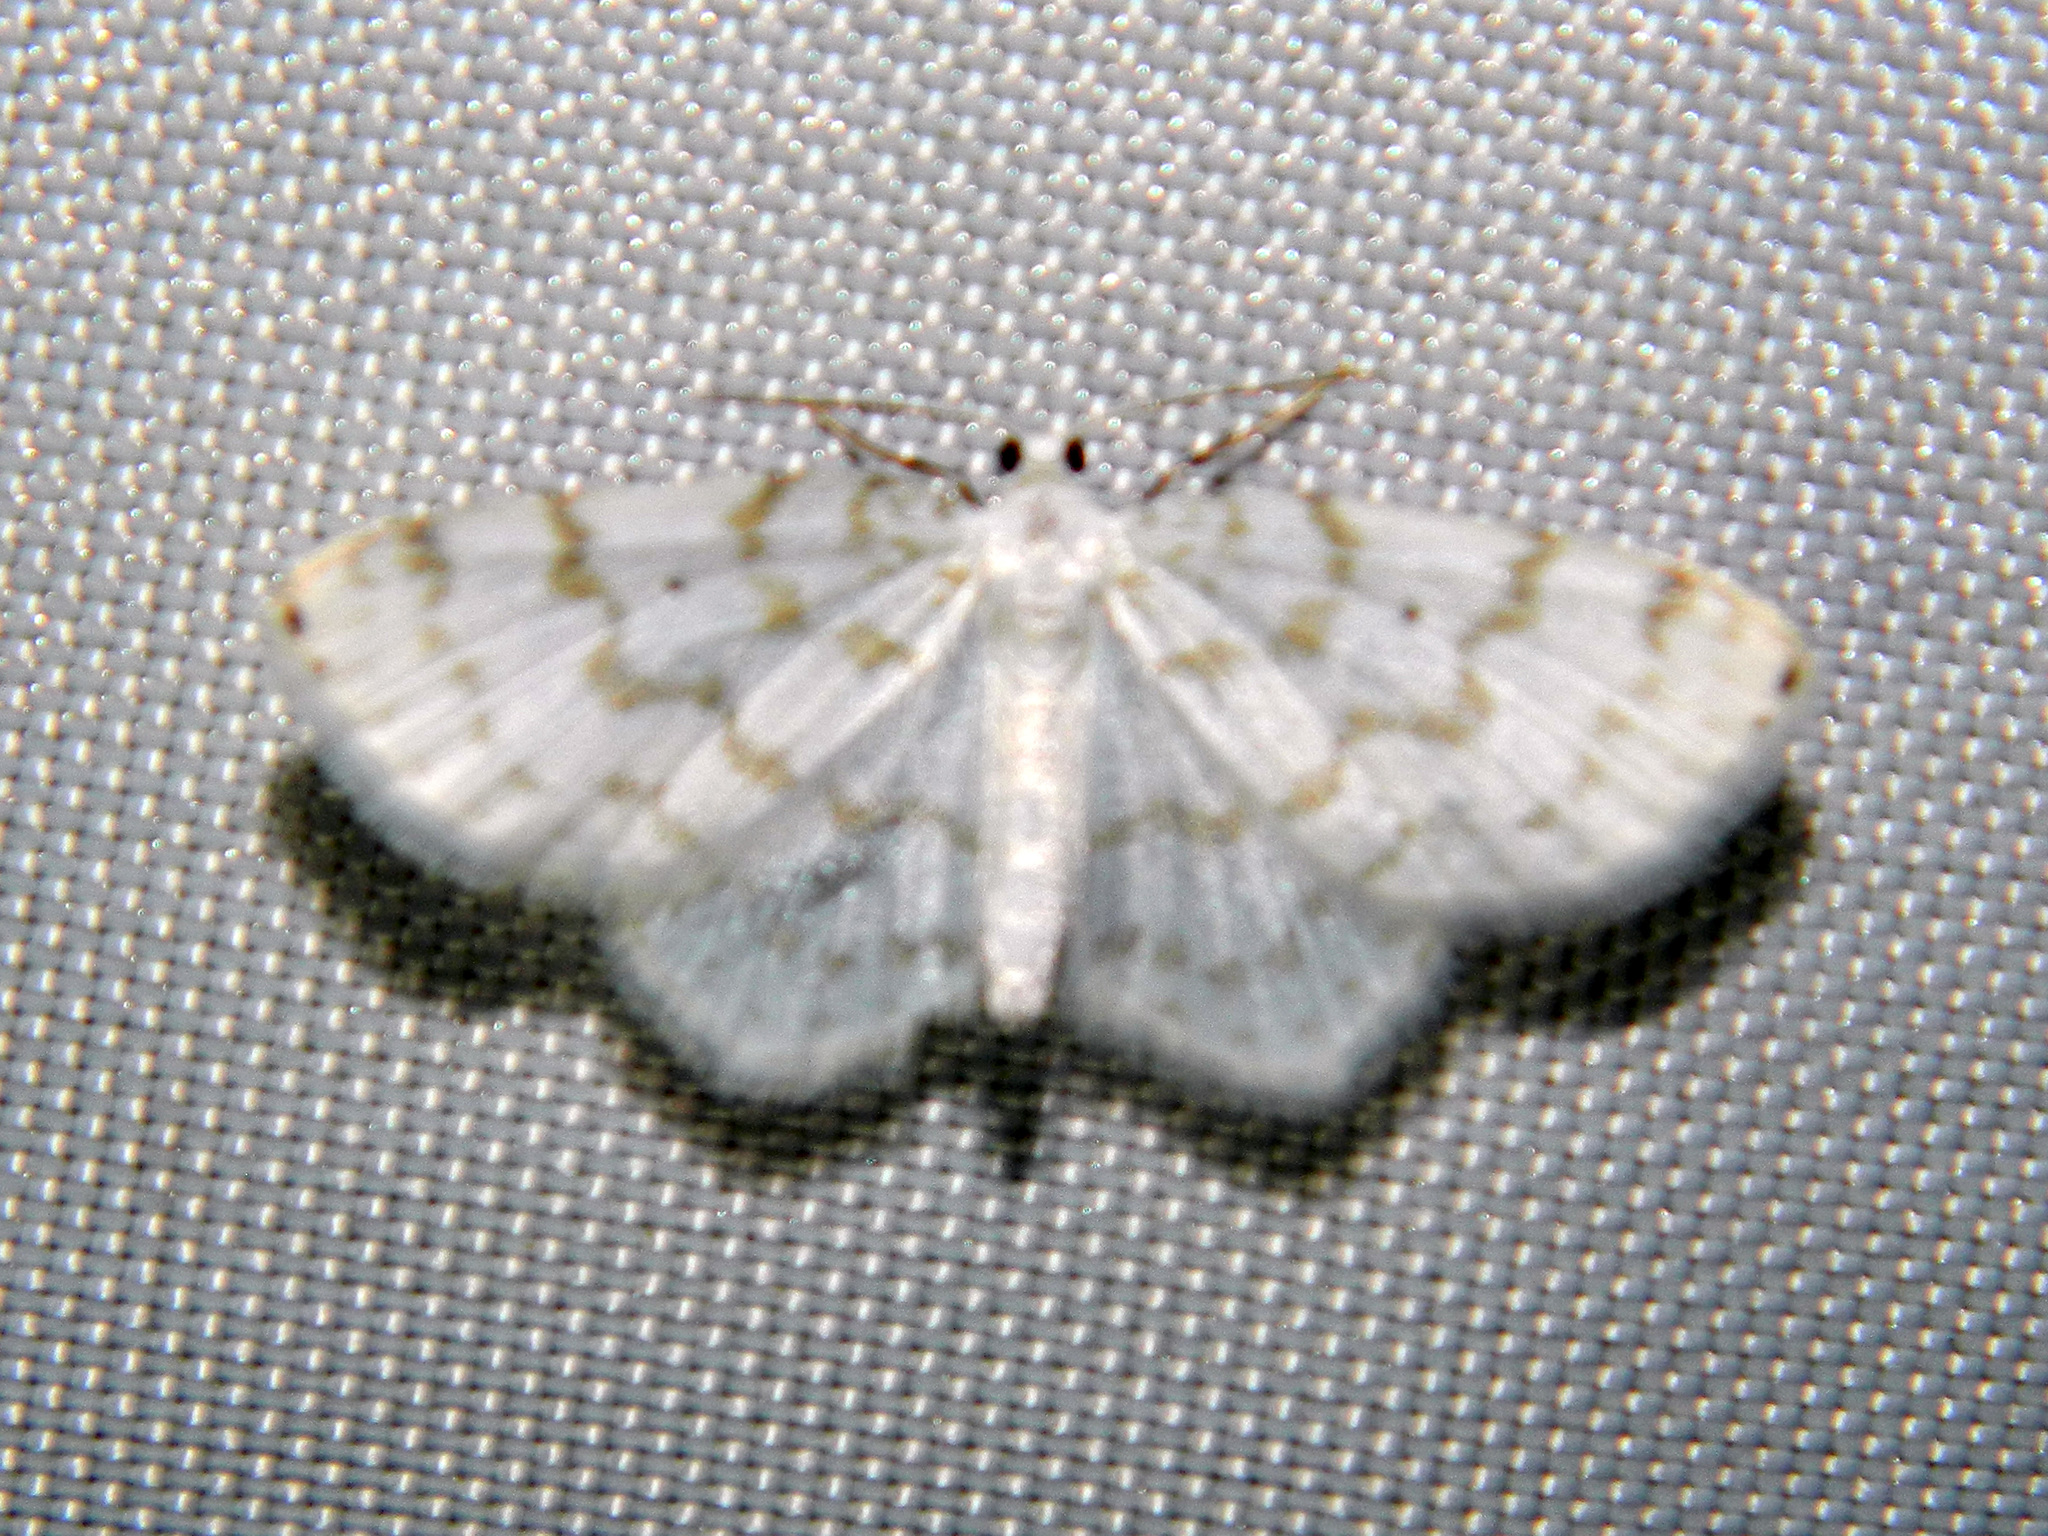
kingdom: Animalia
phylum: Arthropoda
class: Insecta
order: Lepidoptera
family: Geometridae
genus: Hydrelia
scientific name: Hydrelia albifera
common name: Fragile white carpet
